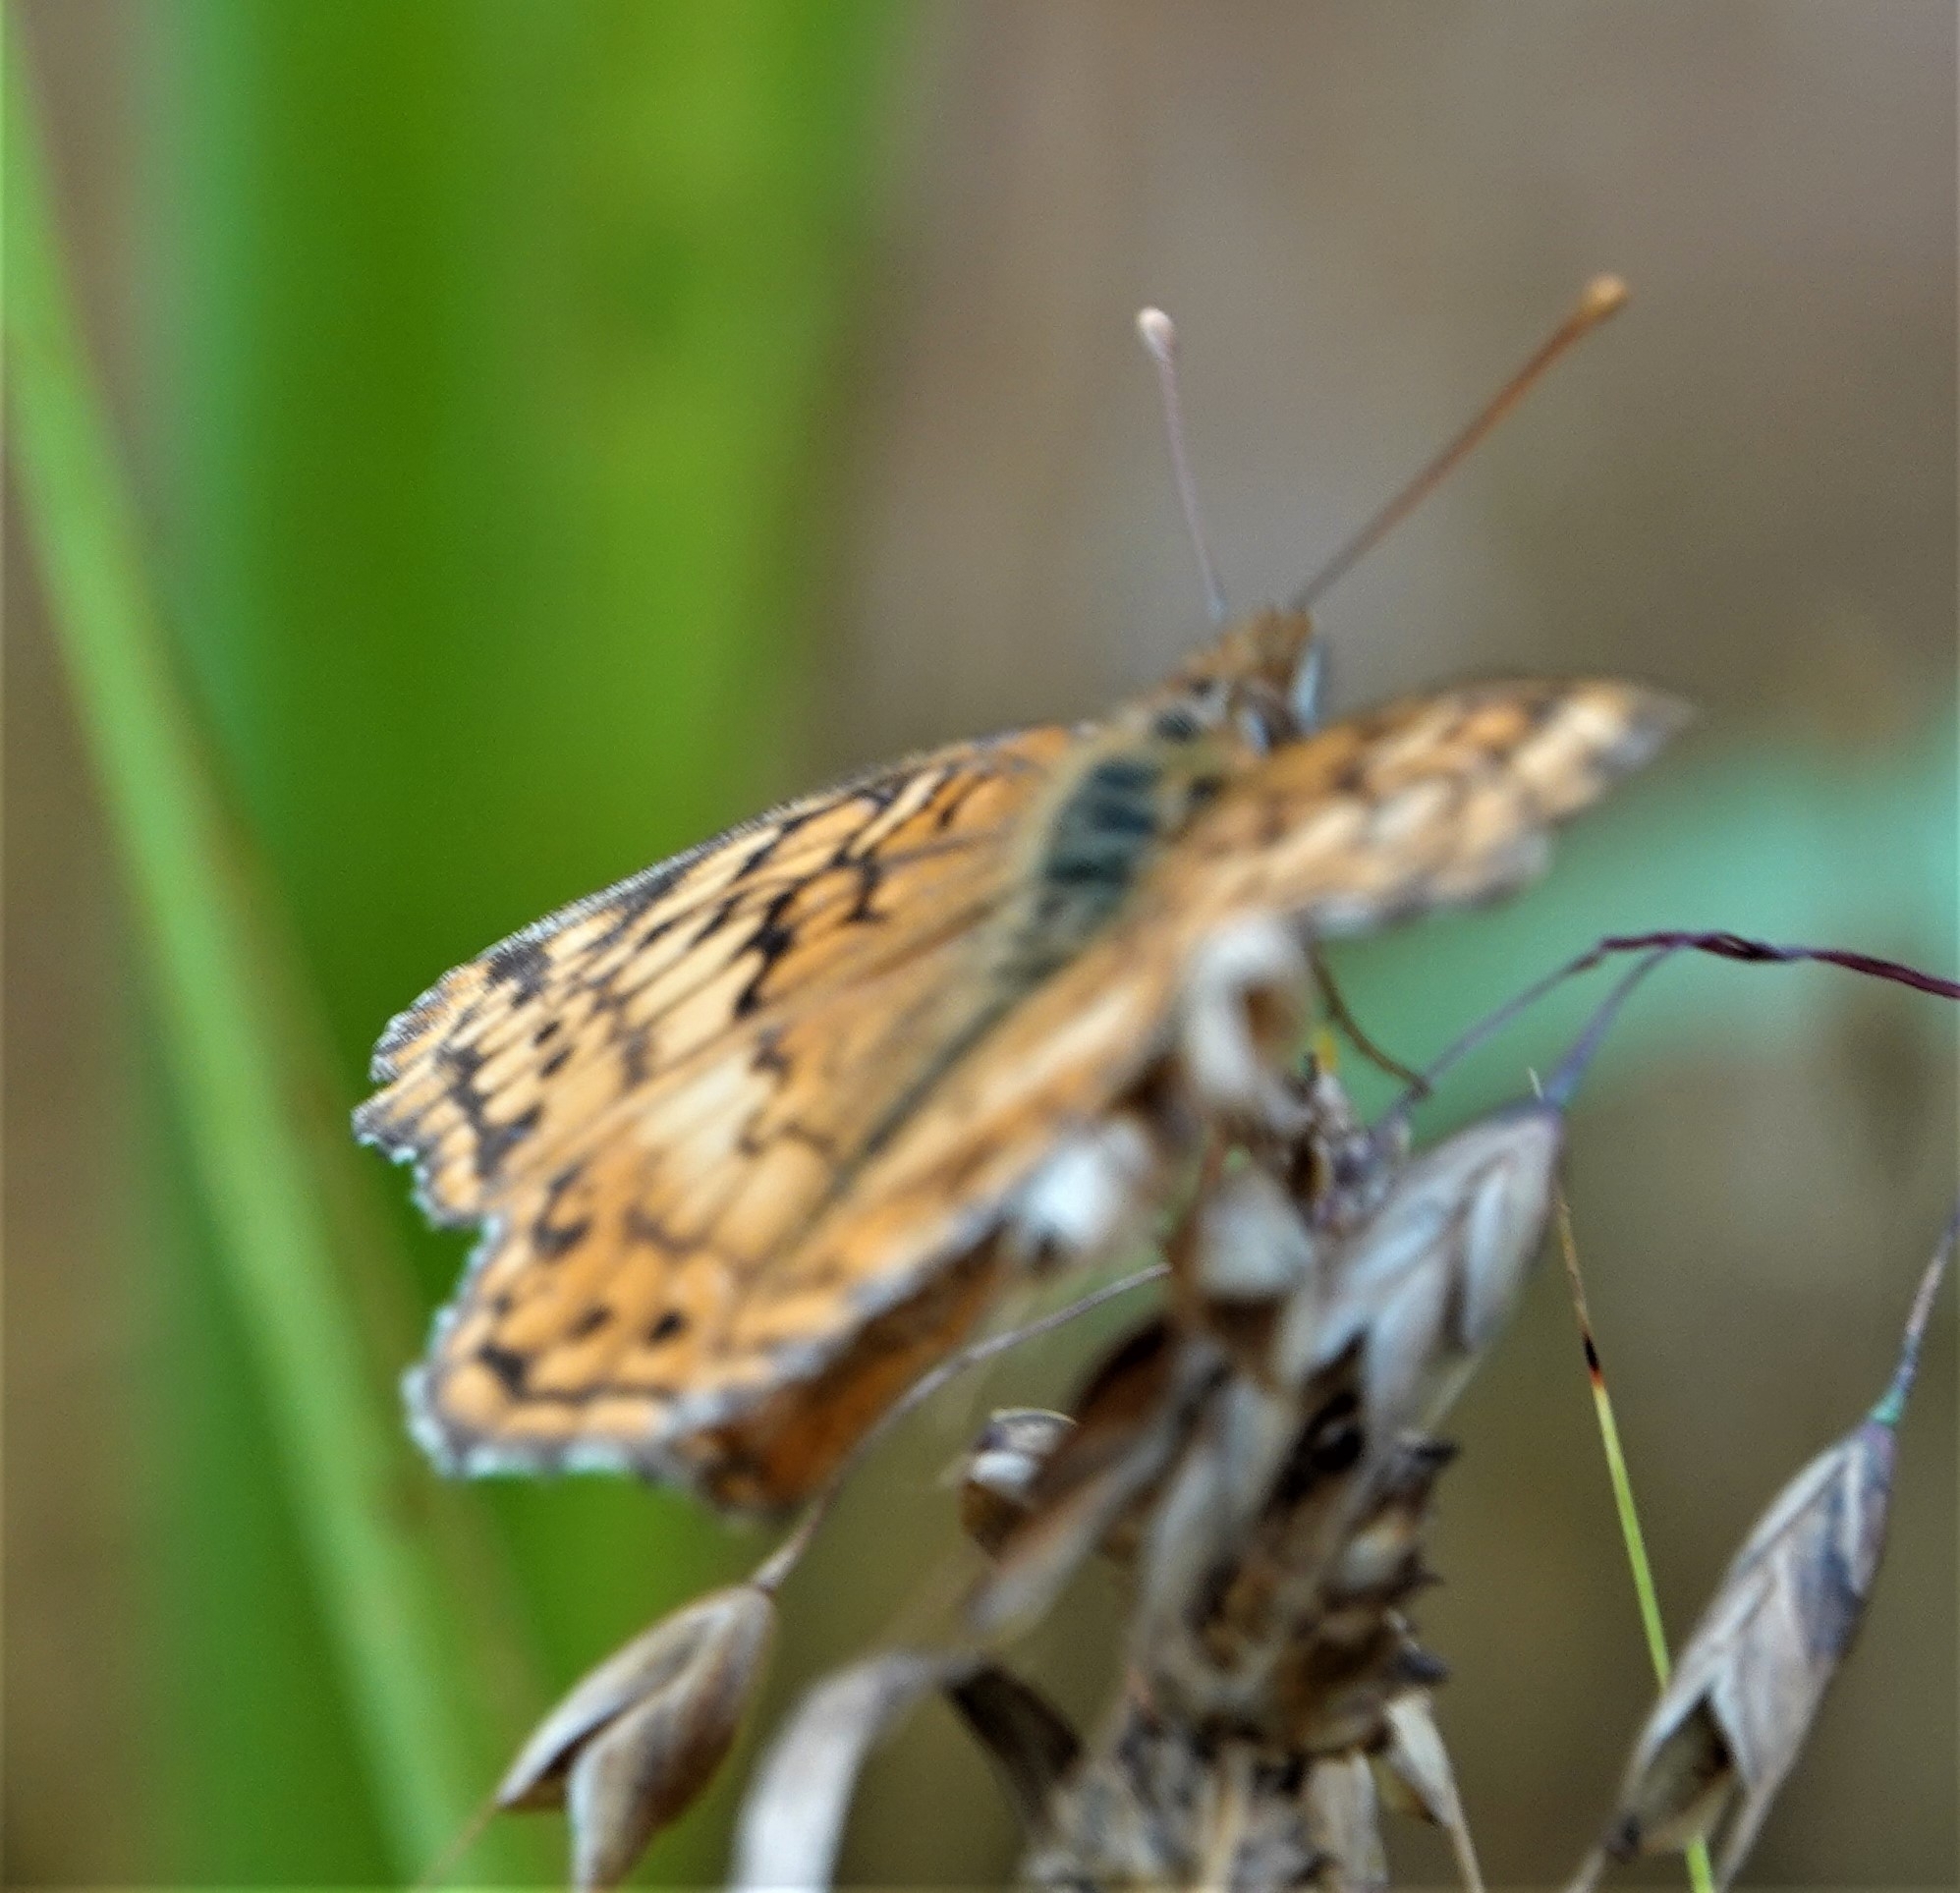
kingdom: Animalia
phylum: Arthropoda
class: Insecta
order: Lepidoptera
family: Nymphalidae
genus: Euptoieta
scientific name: Euptoieta claudia
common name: Variegated fritillary
